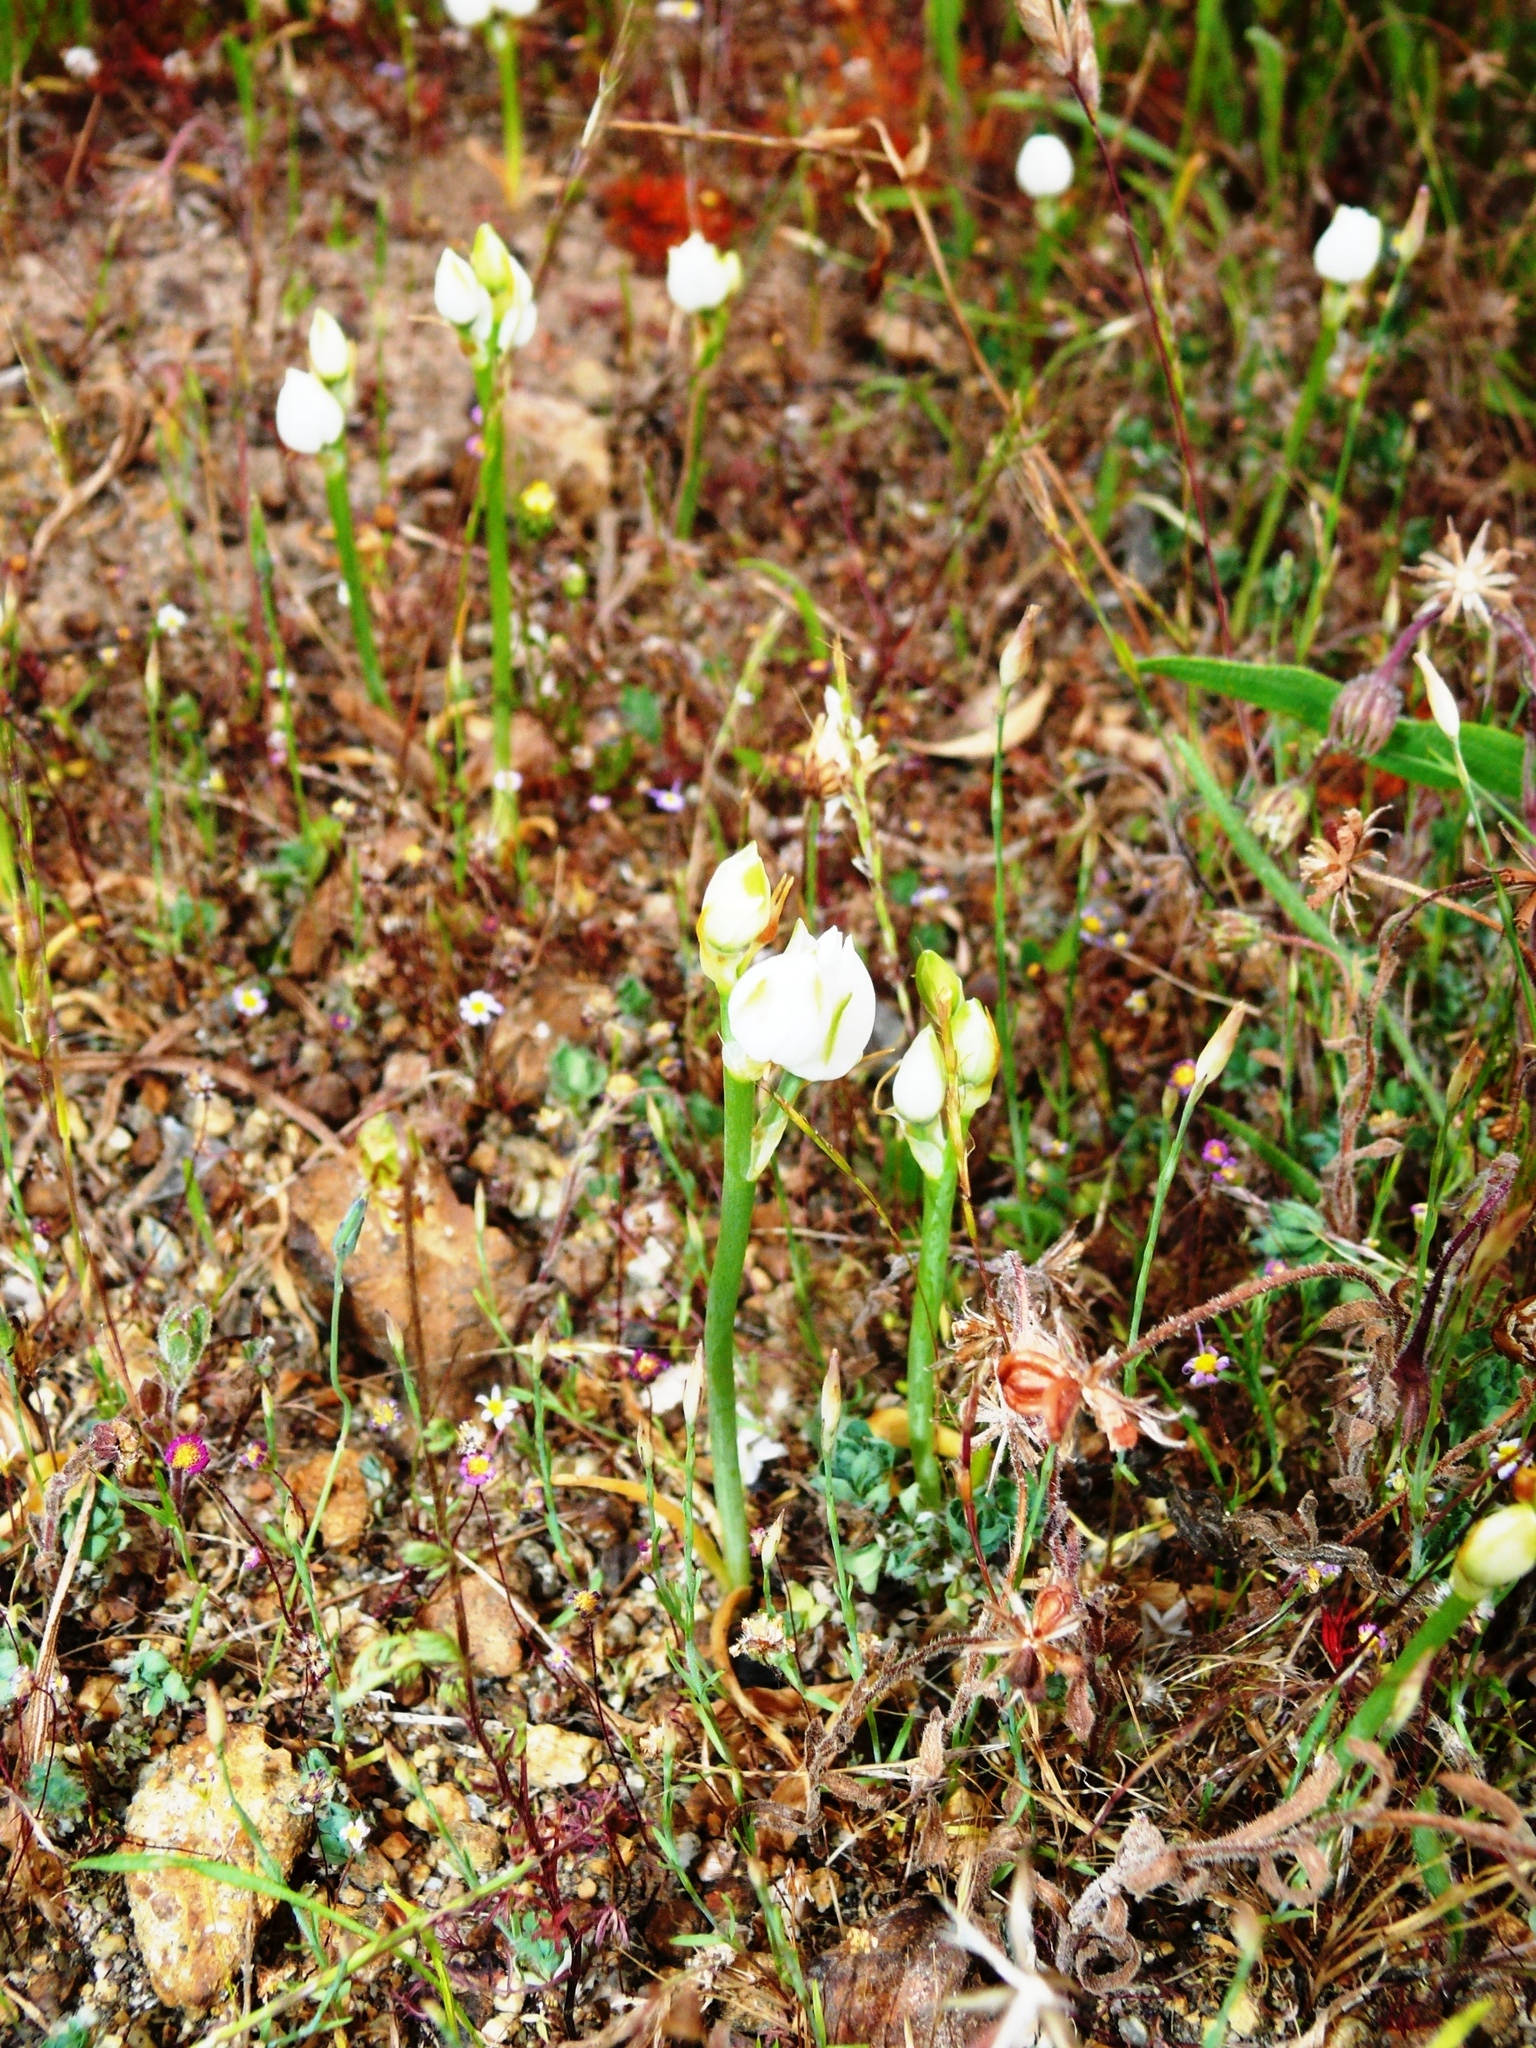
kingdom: Plantae
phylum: Tracheophyta
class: Liliopsida
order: Asparagales
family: Asparagaceae
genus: Ornithogalum
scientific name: Ornithogalum thyrsoides
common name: Chincherinchee
